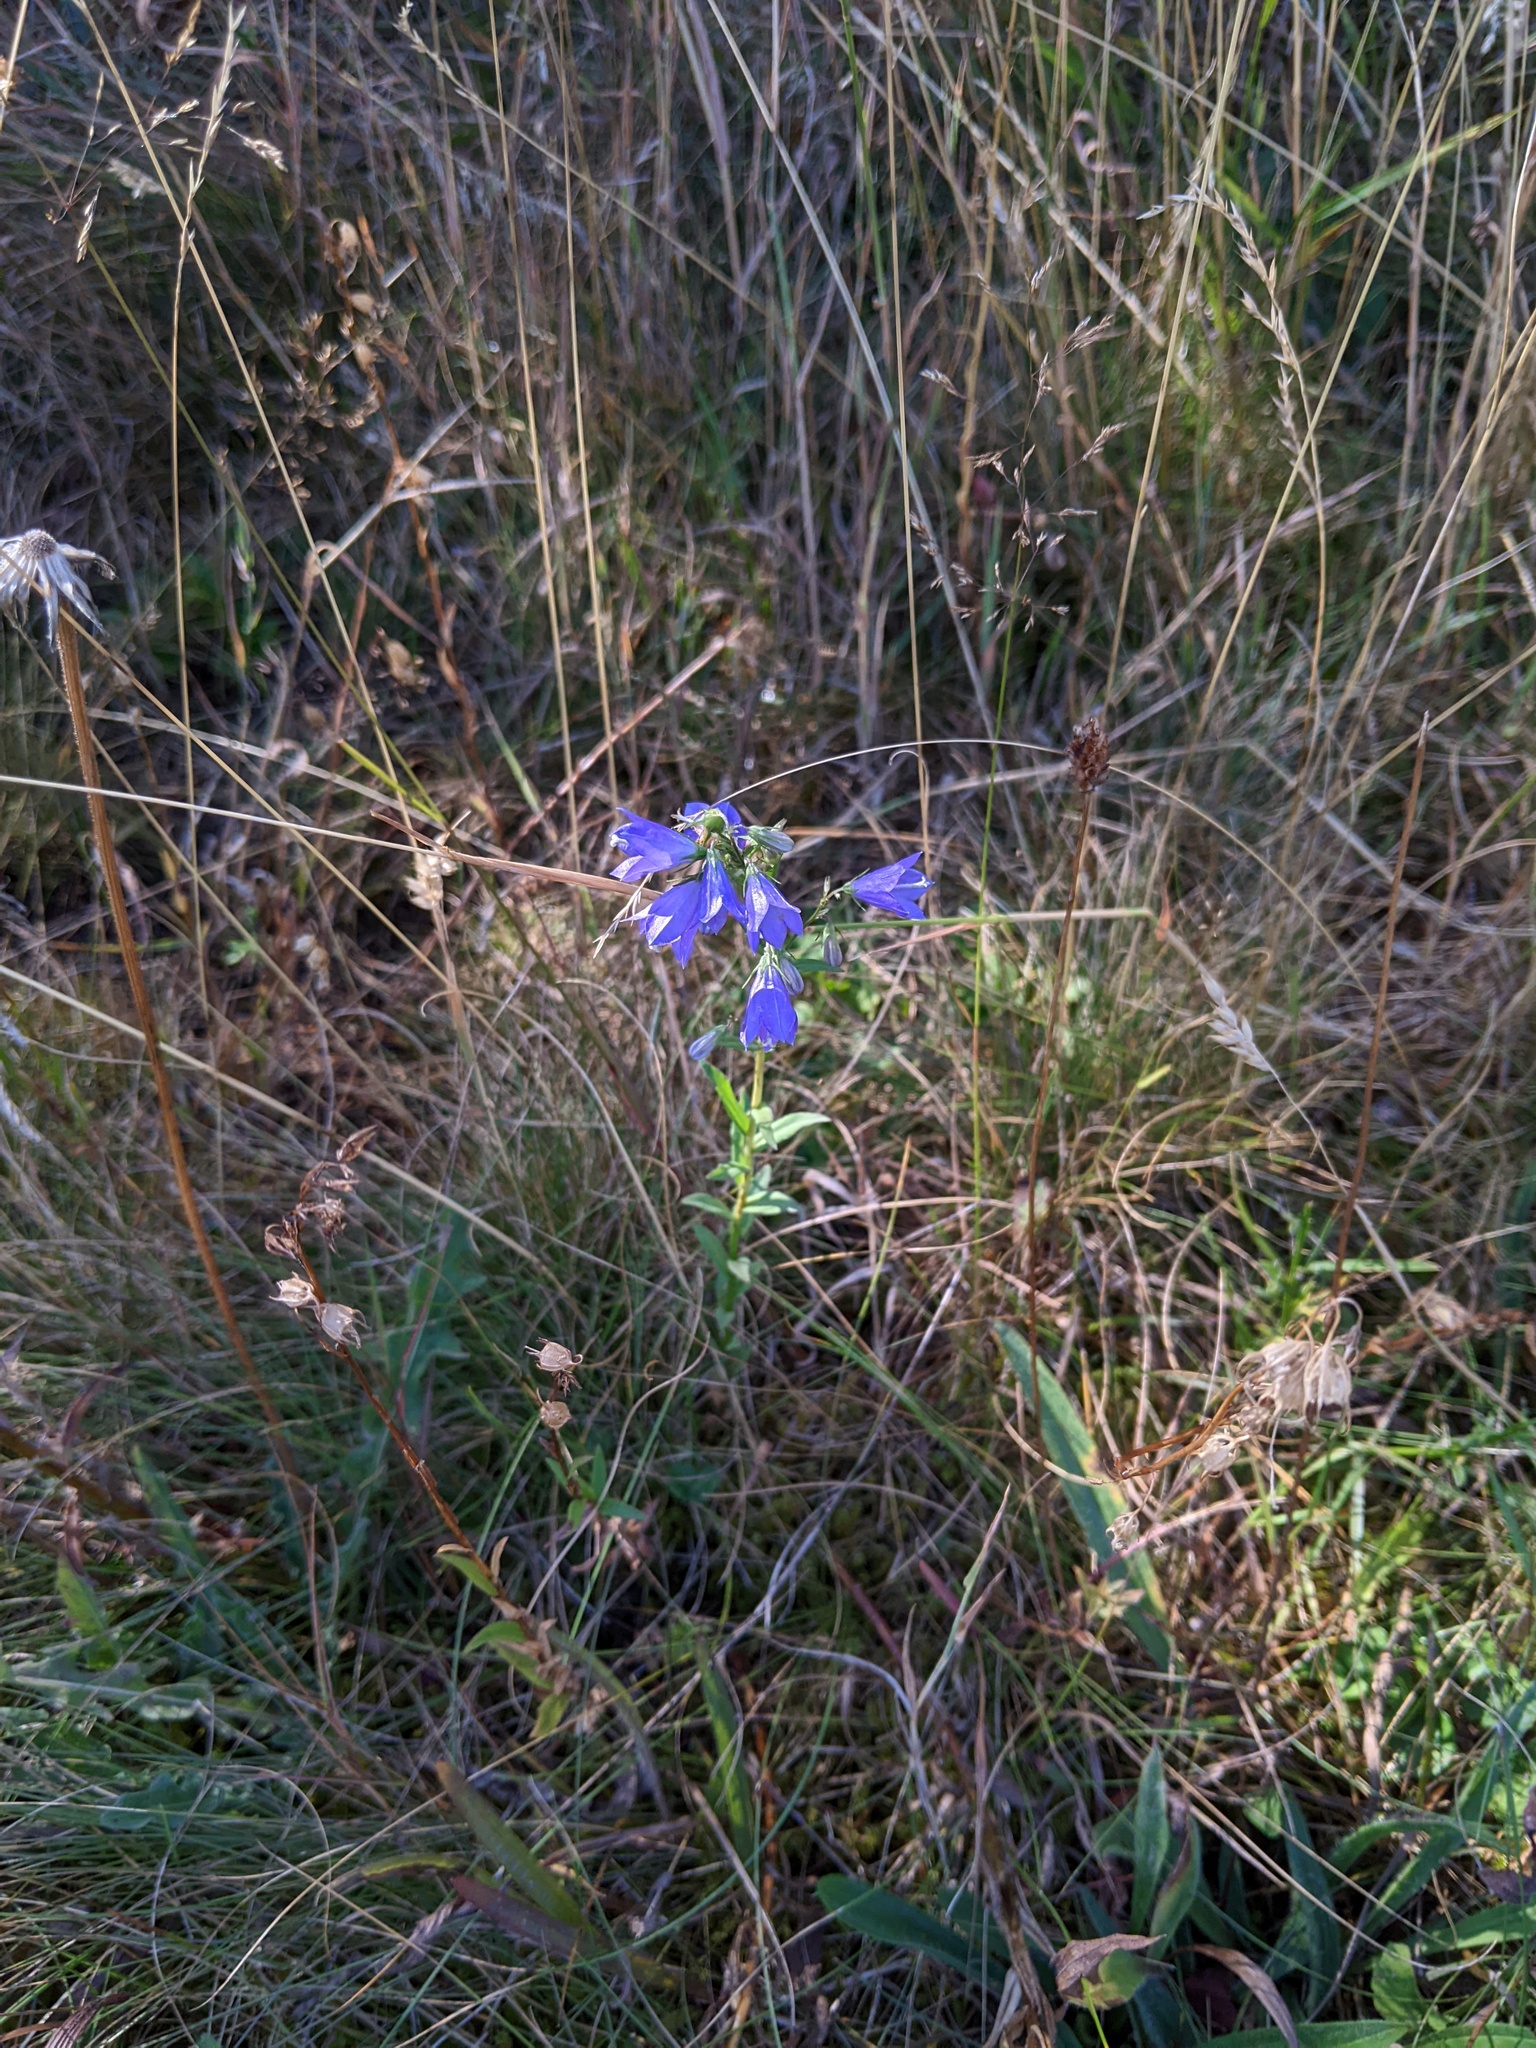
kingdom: Plantae
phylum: Tracheophyta
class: Magnoliopsida
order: Asterales
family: Campanulaceae
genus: Campanula
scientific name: Campanula scheuchzeri
